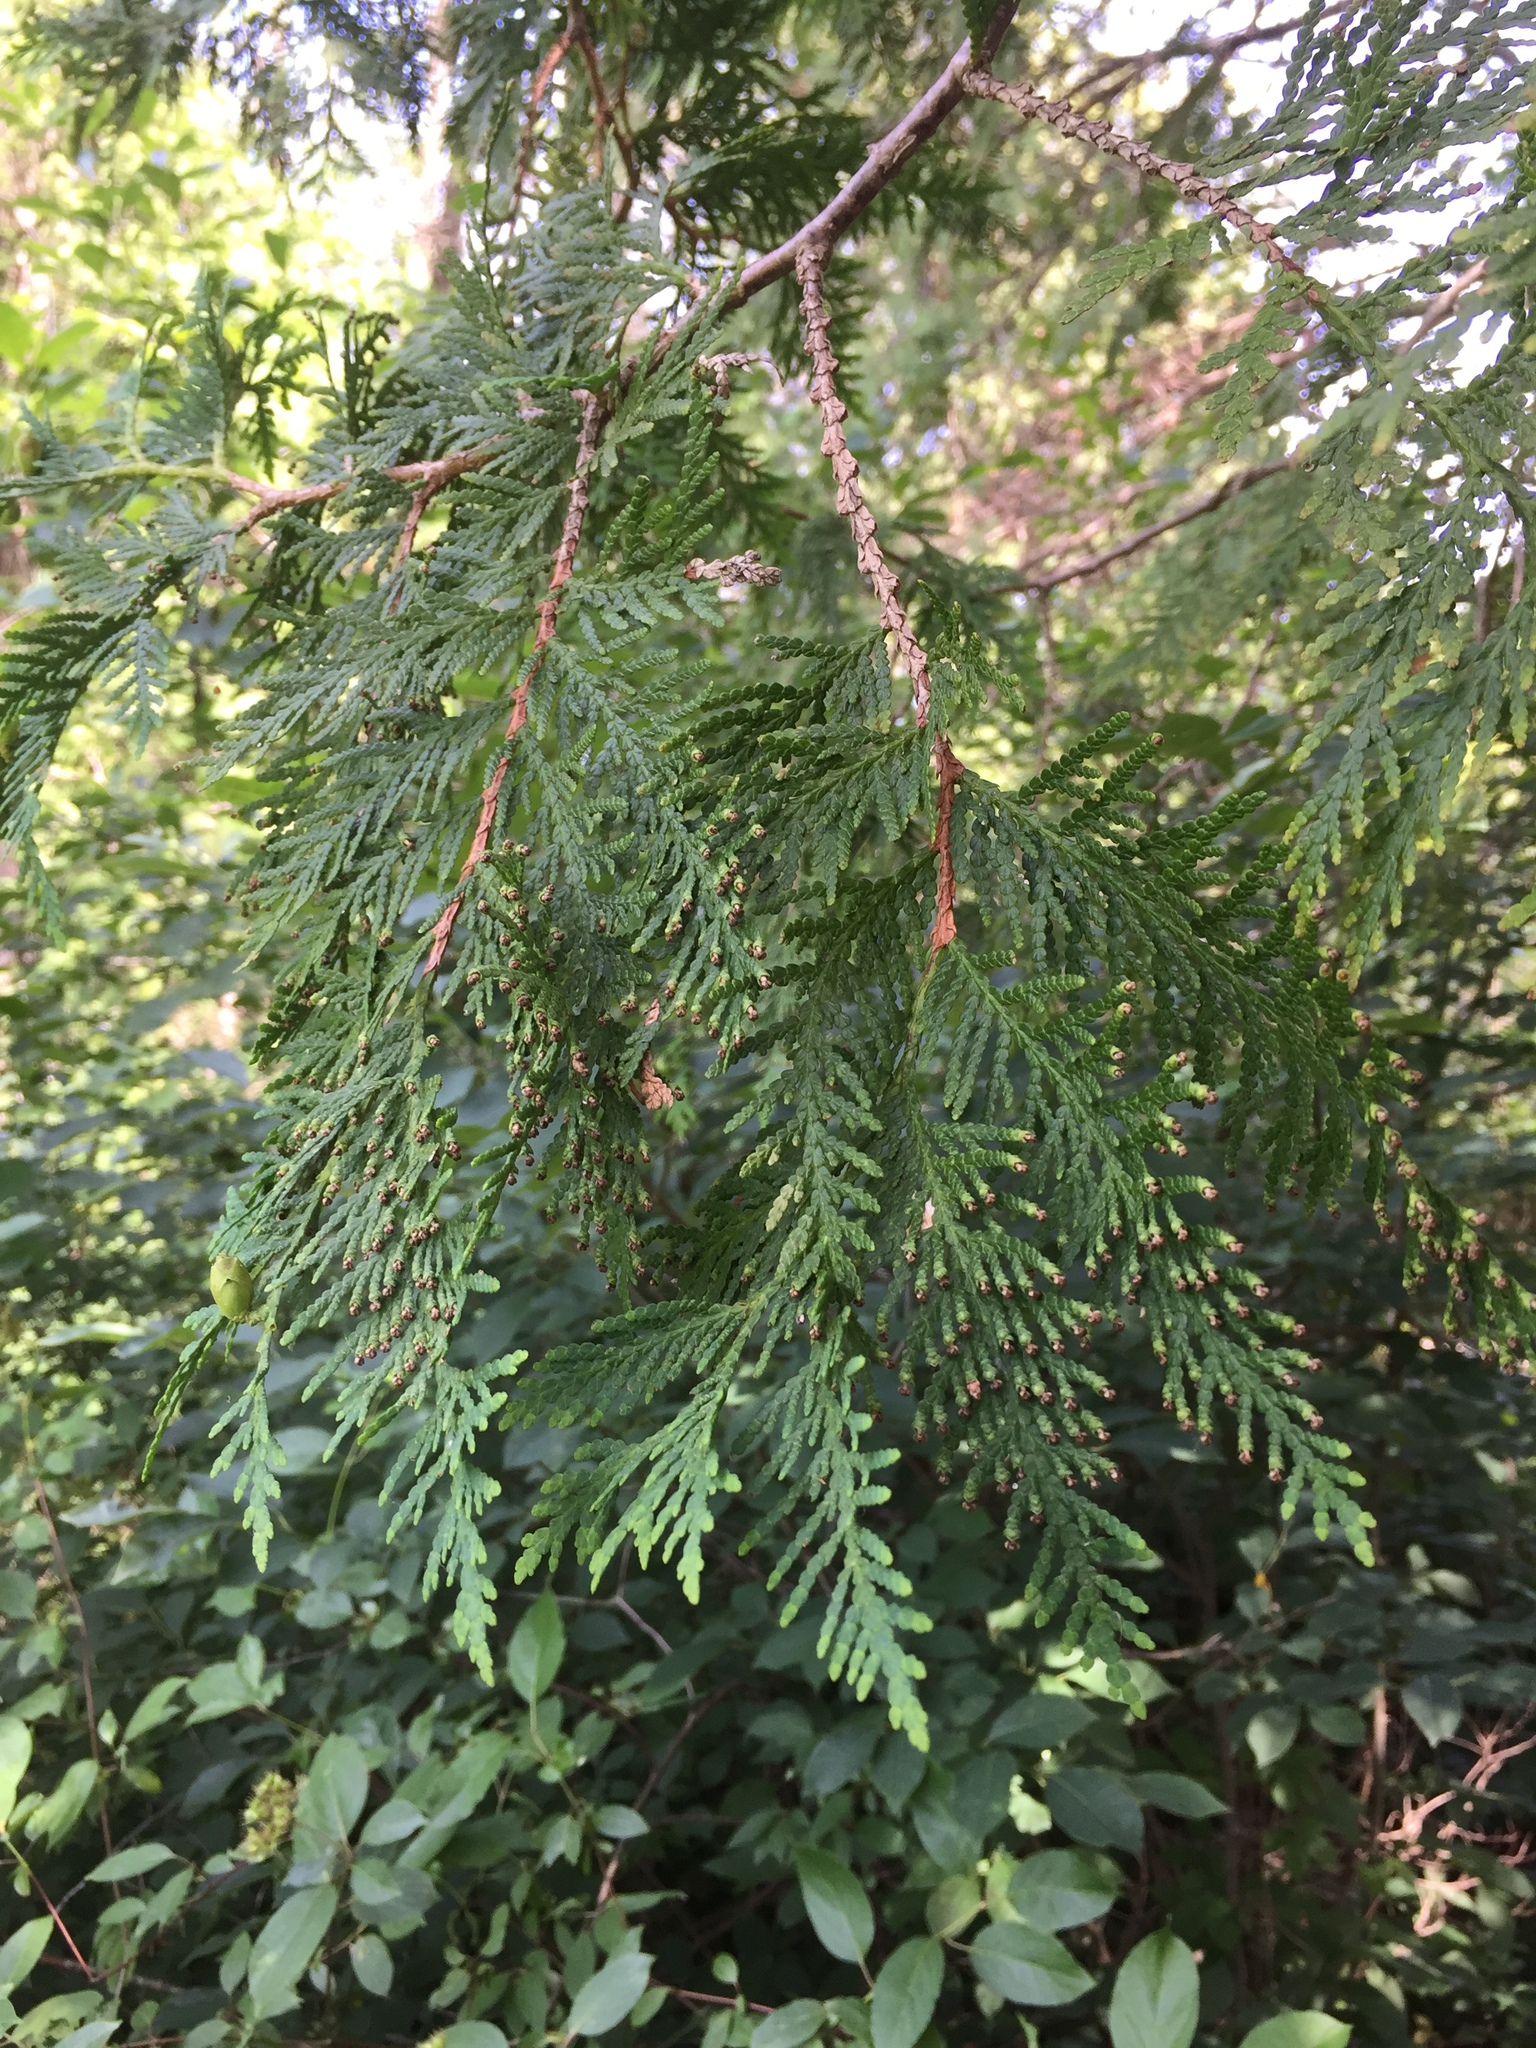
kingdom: Plantae
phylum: Tracheophyta
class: Pinopsida
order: Pinales
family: Cupressaceae
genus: Thuja
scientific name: Thuja occidentalis
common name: Northern white-cedar
